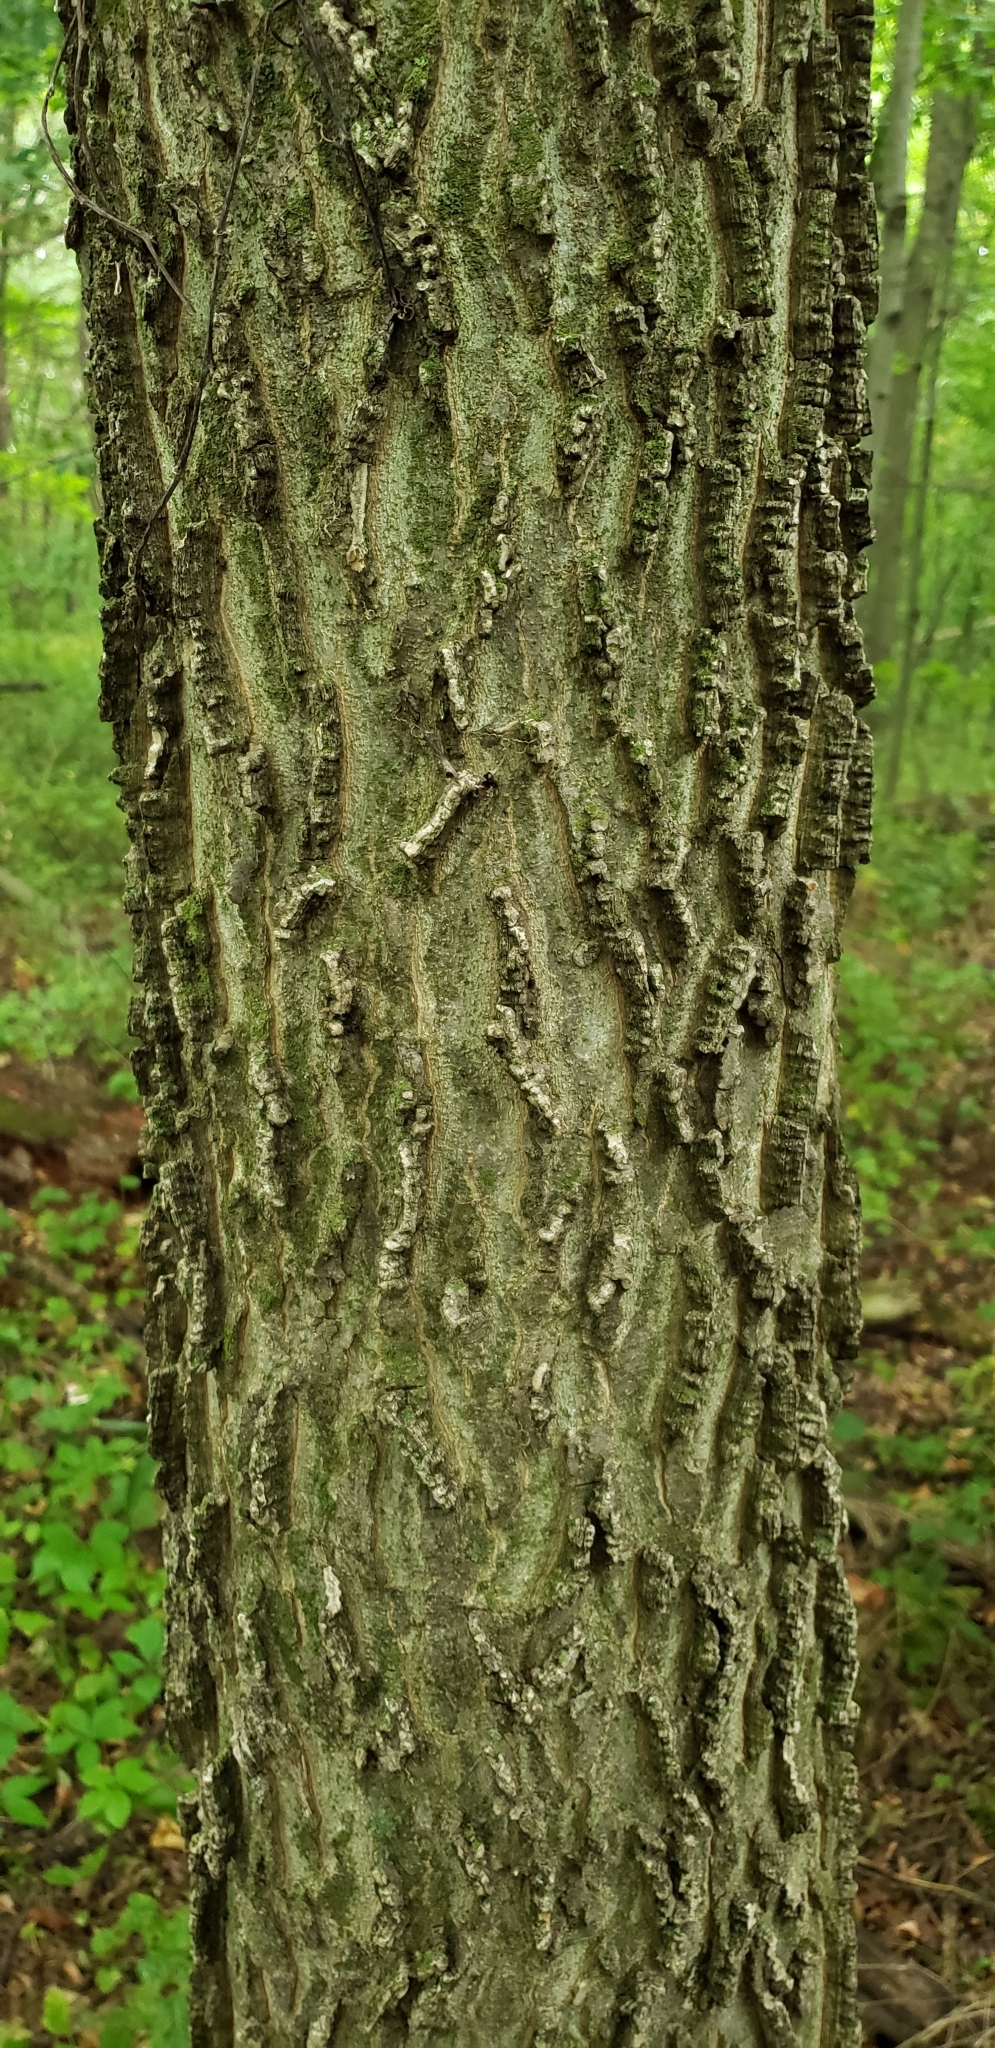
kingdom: Plantae
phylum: Tracheophyta
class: Magnoliopsida
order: Rosales
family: Cannabaceae
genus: Celtis
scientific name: Celtis occidentalis
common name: Common hackberry
